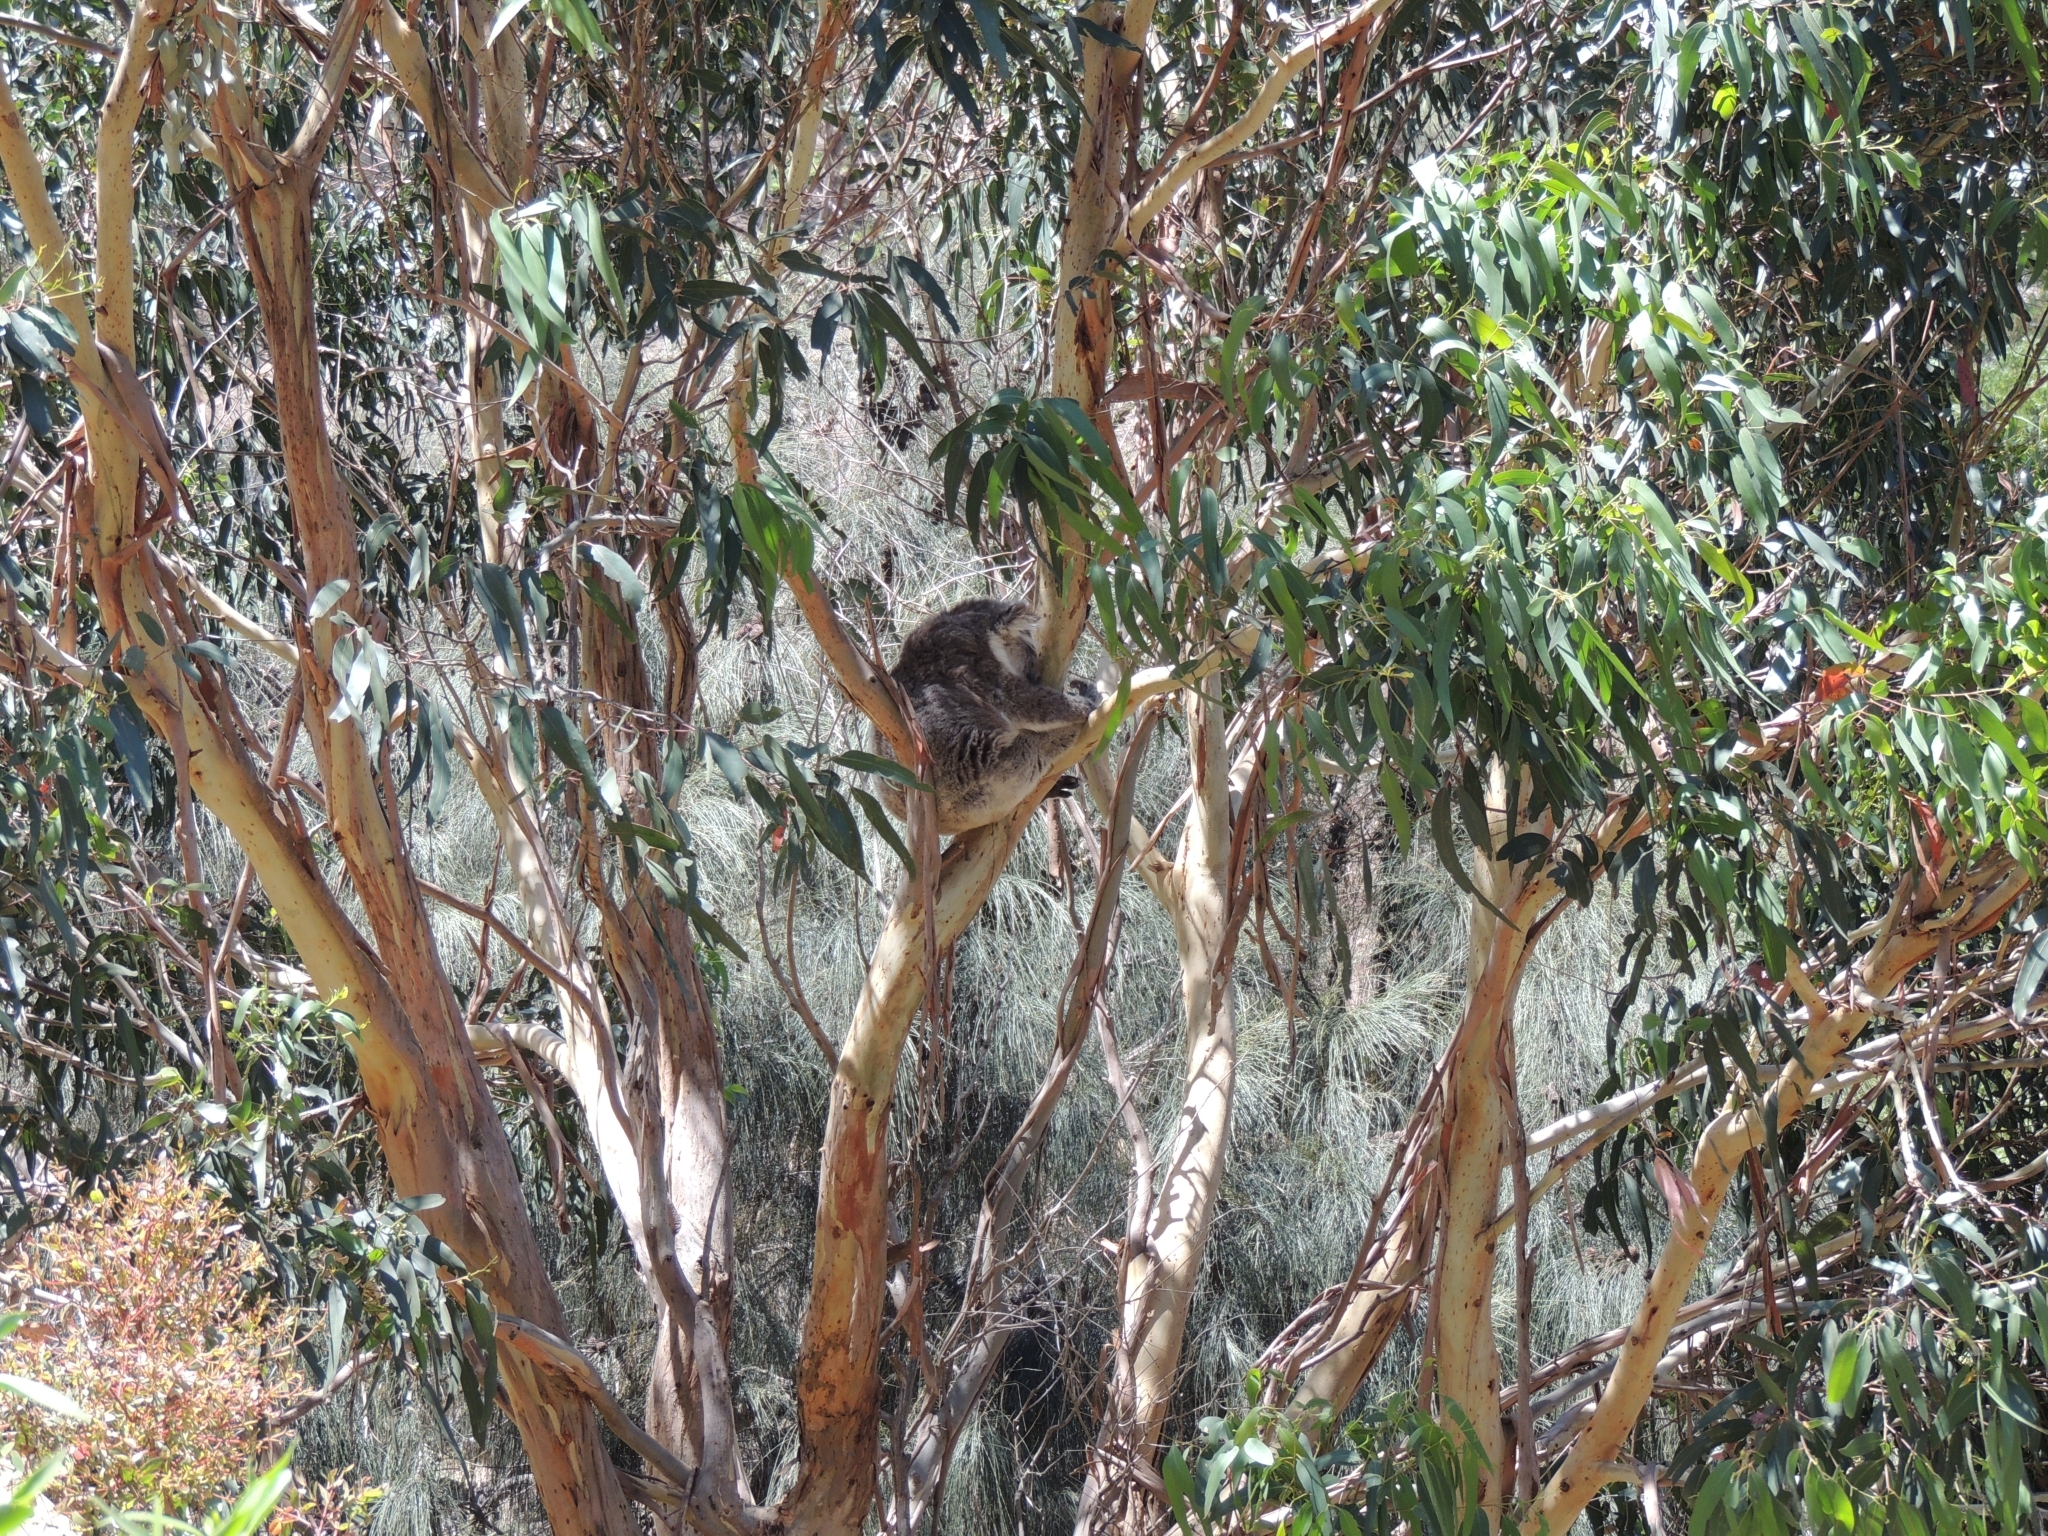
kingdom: Animalia
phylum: Chordata
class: Mammalia
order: Diprotodontia
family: Phascolarctidae
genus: Phascolarctos
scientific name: Phascolarctos cinereus
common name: Koala
